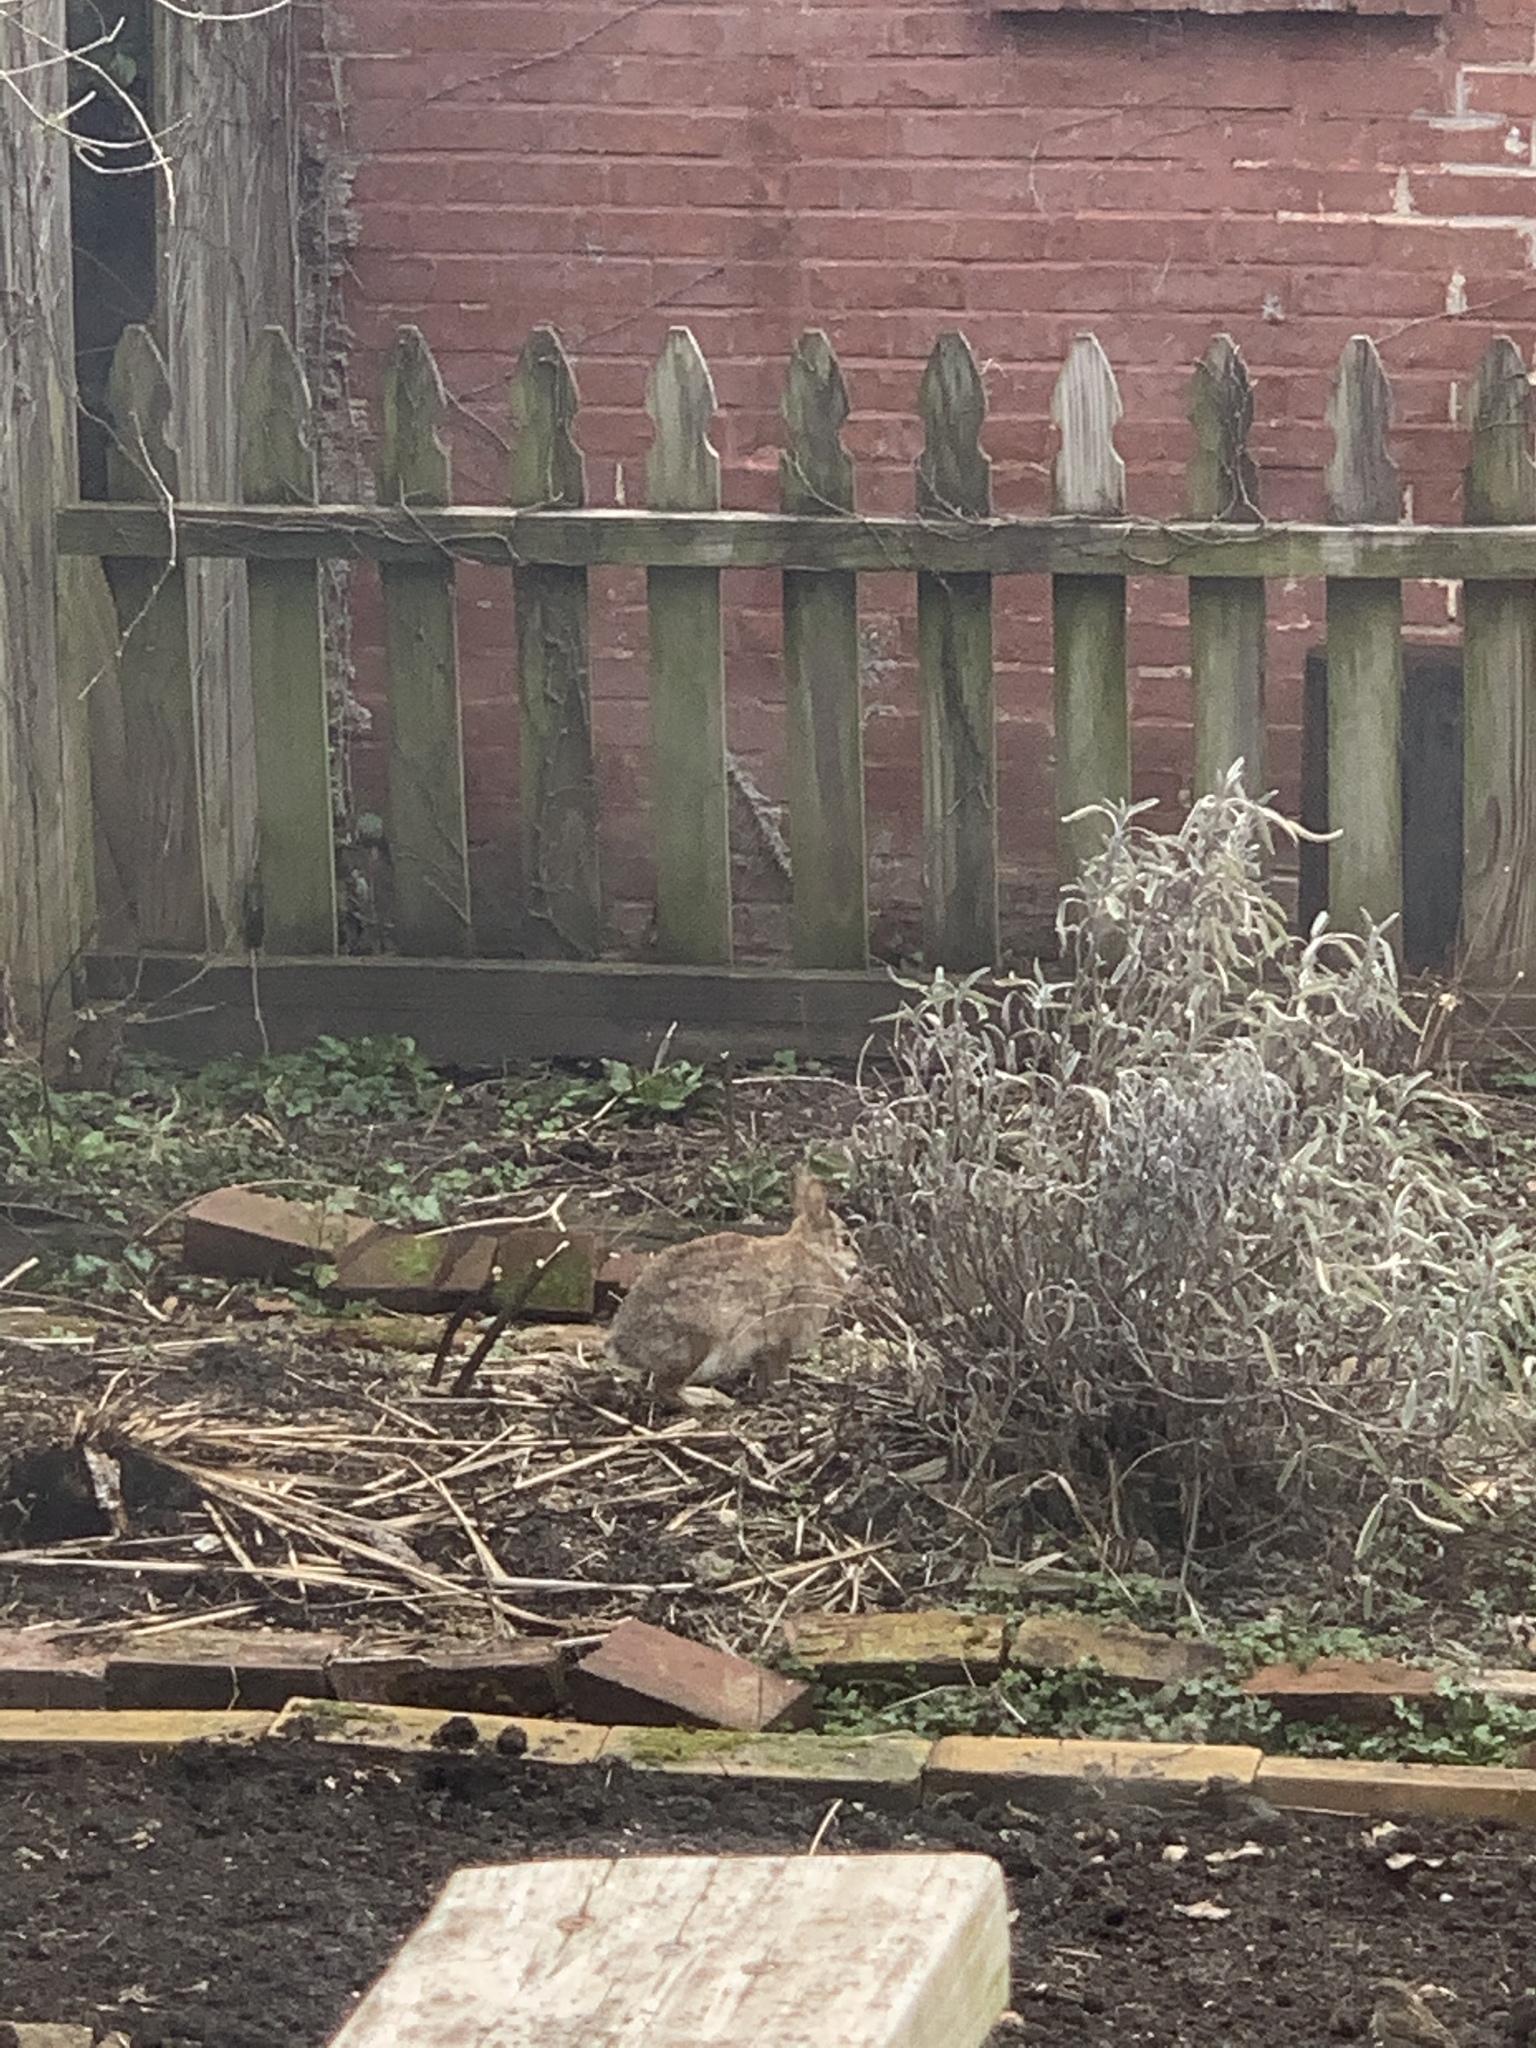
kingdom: Animalia
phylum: Chordata
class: Mammalia
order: Lagomorpha
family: Leporidae
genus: Sylvilagus
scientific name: Sylvilagus floridanus
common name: Eastern cottontail
